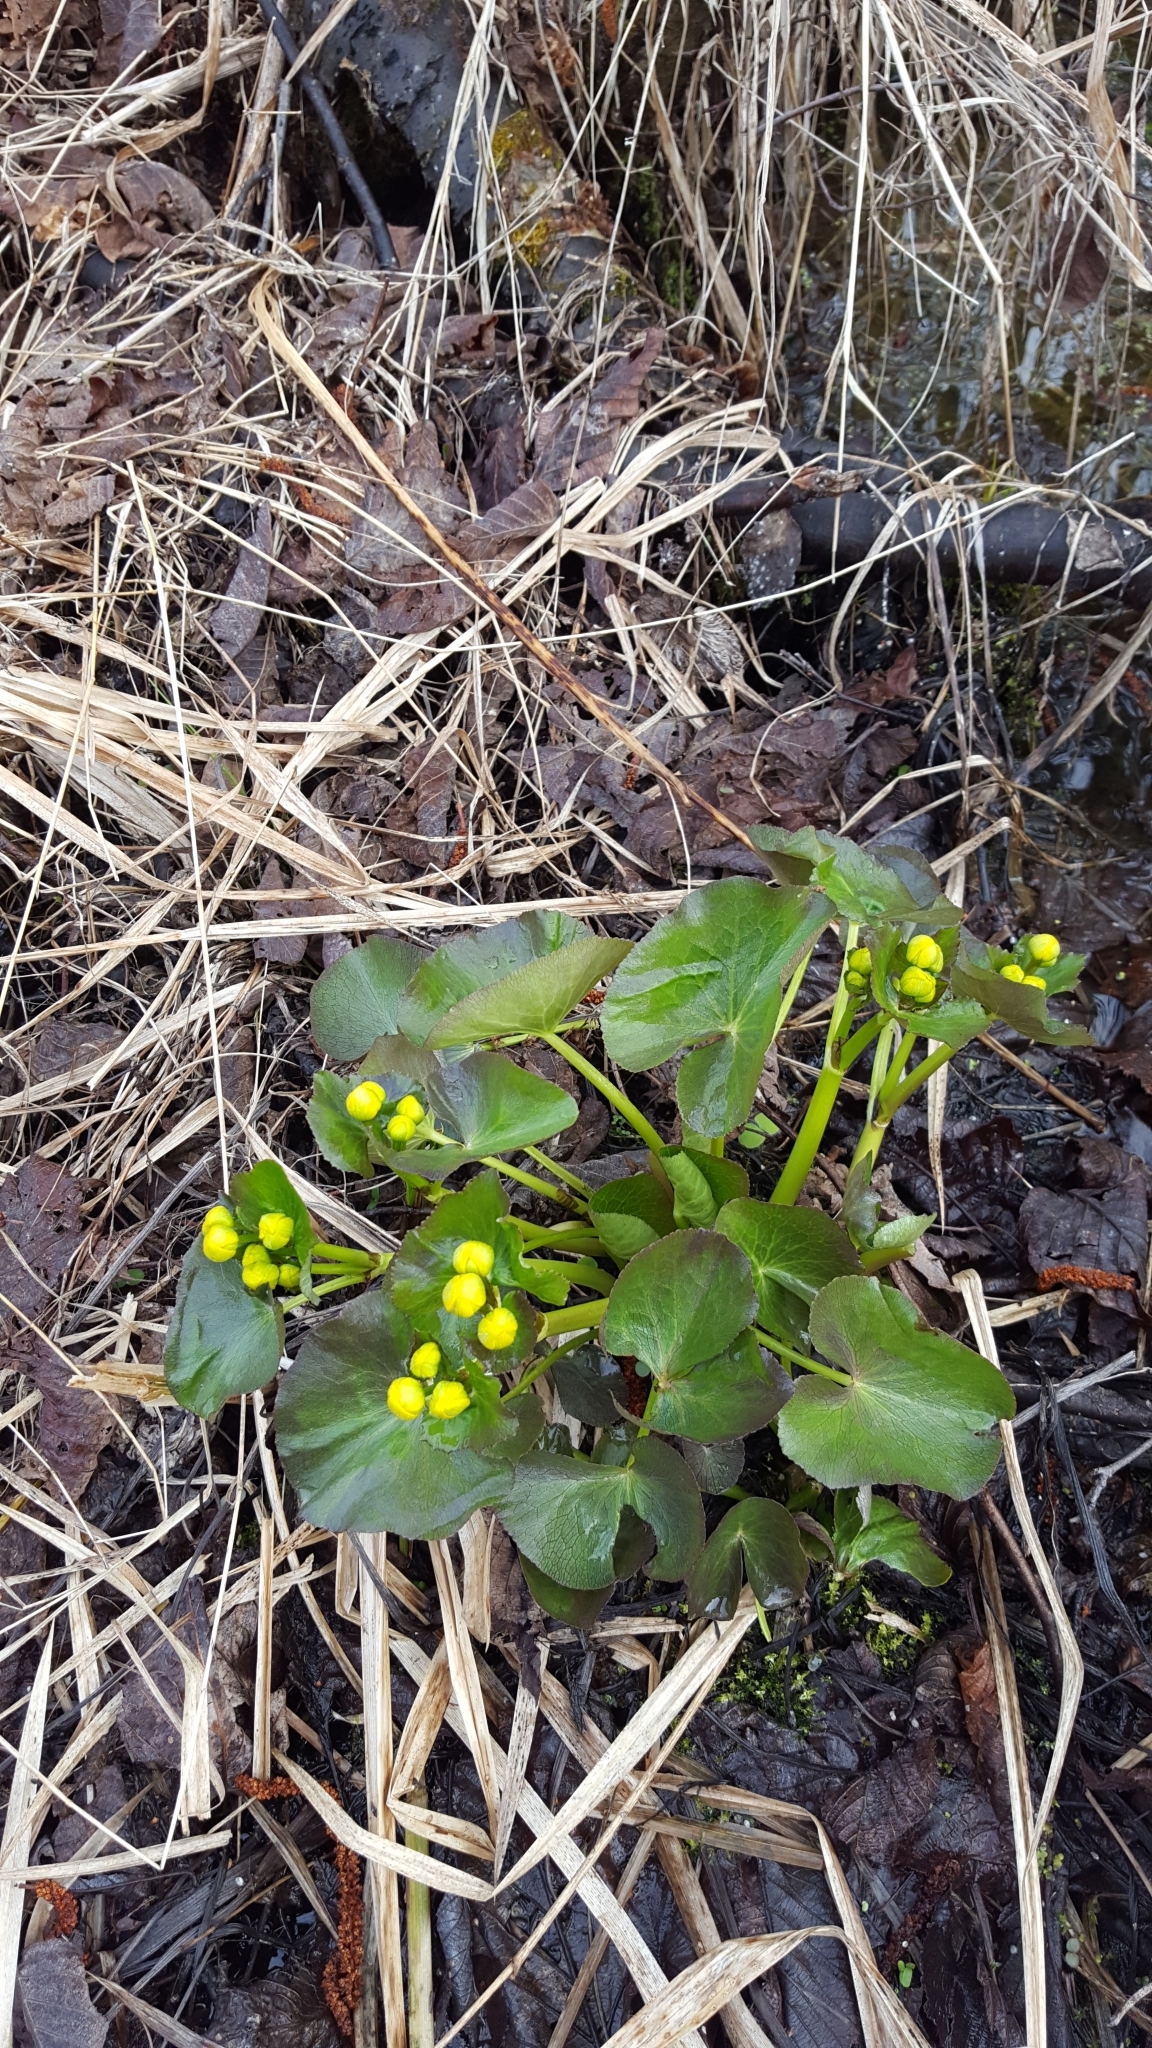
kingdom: Plantae
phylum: Tracheophyta
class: Magnoliopsida
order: Ranunculales
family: Ranunculaceae
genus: Caltha
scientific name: Caltha palustris
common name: Marsh marigold
